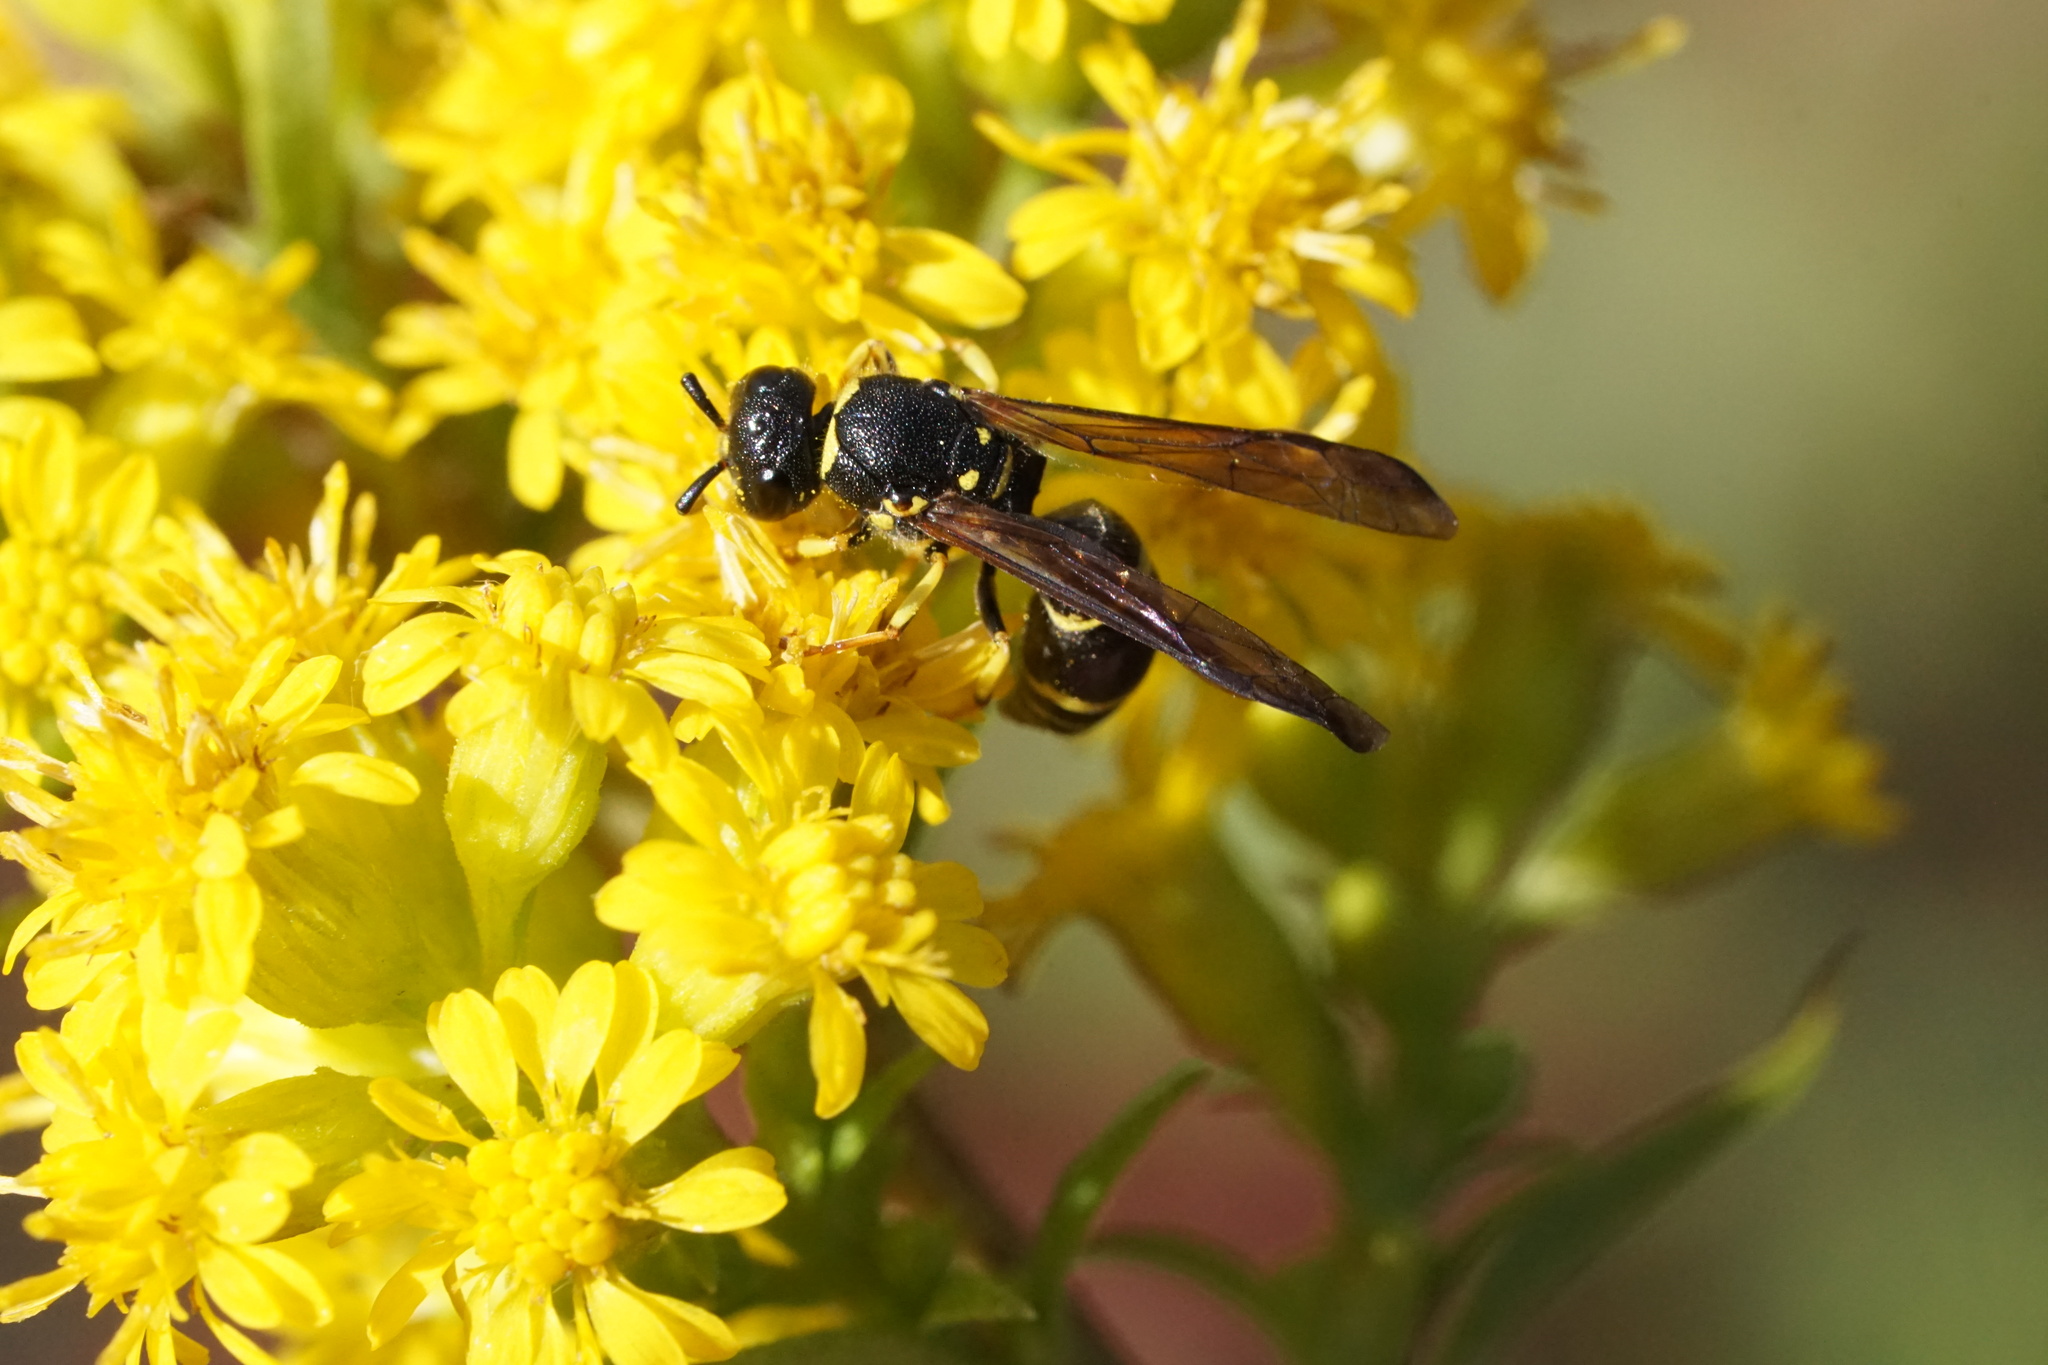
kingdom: Animalia
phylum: Arthropoda
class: Insecta
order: Hymenoptera
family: Vespidae
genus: Ancistrocerus
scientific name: Ancistrocerus adiabatus
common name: Bramble mason wasp
